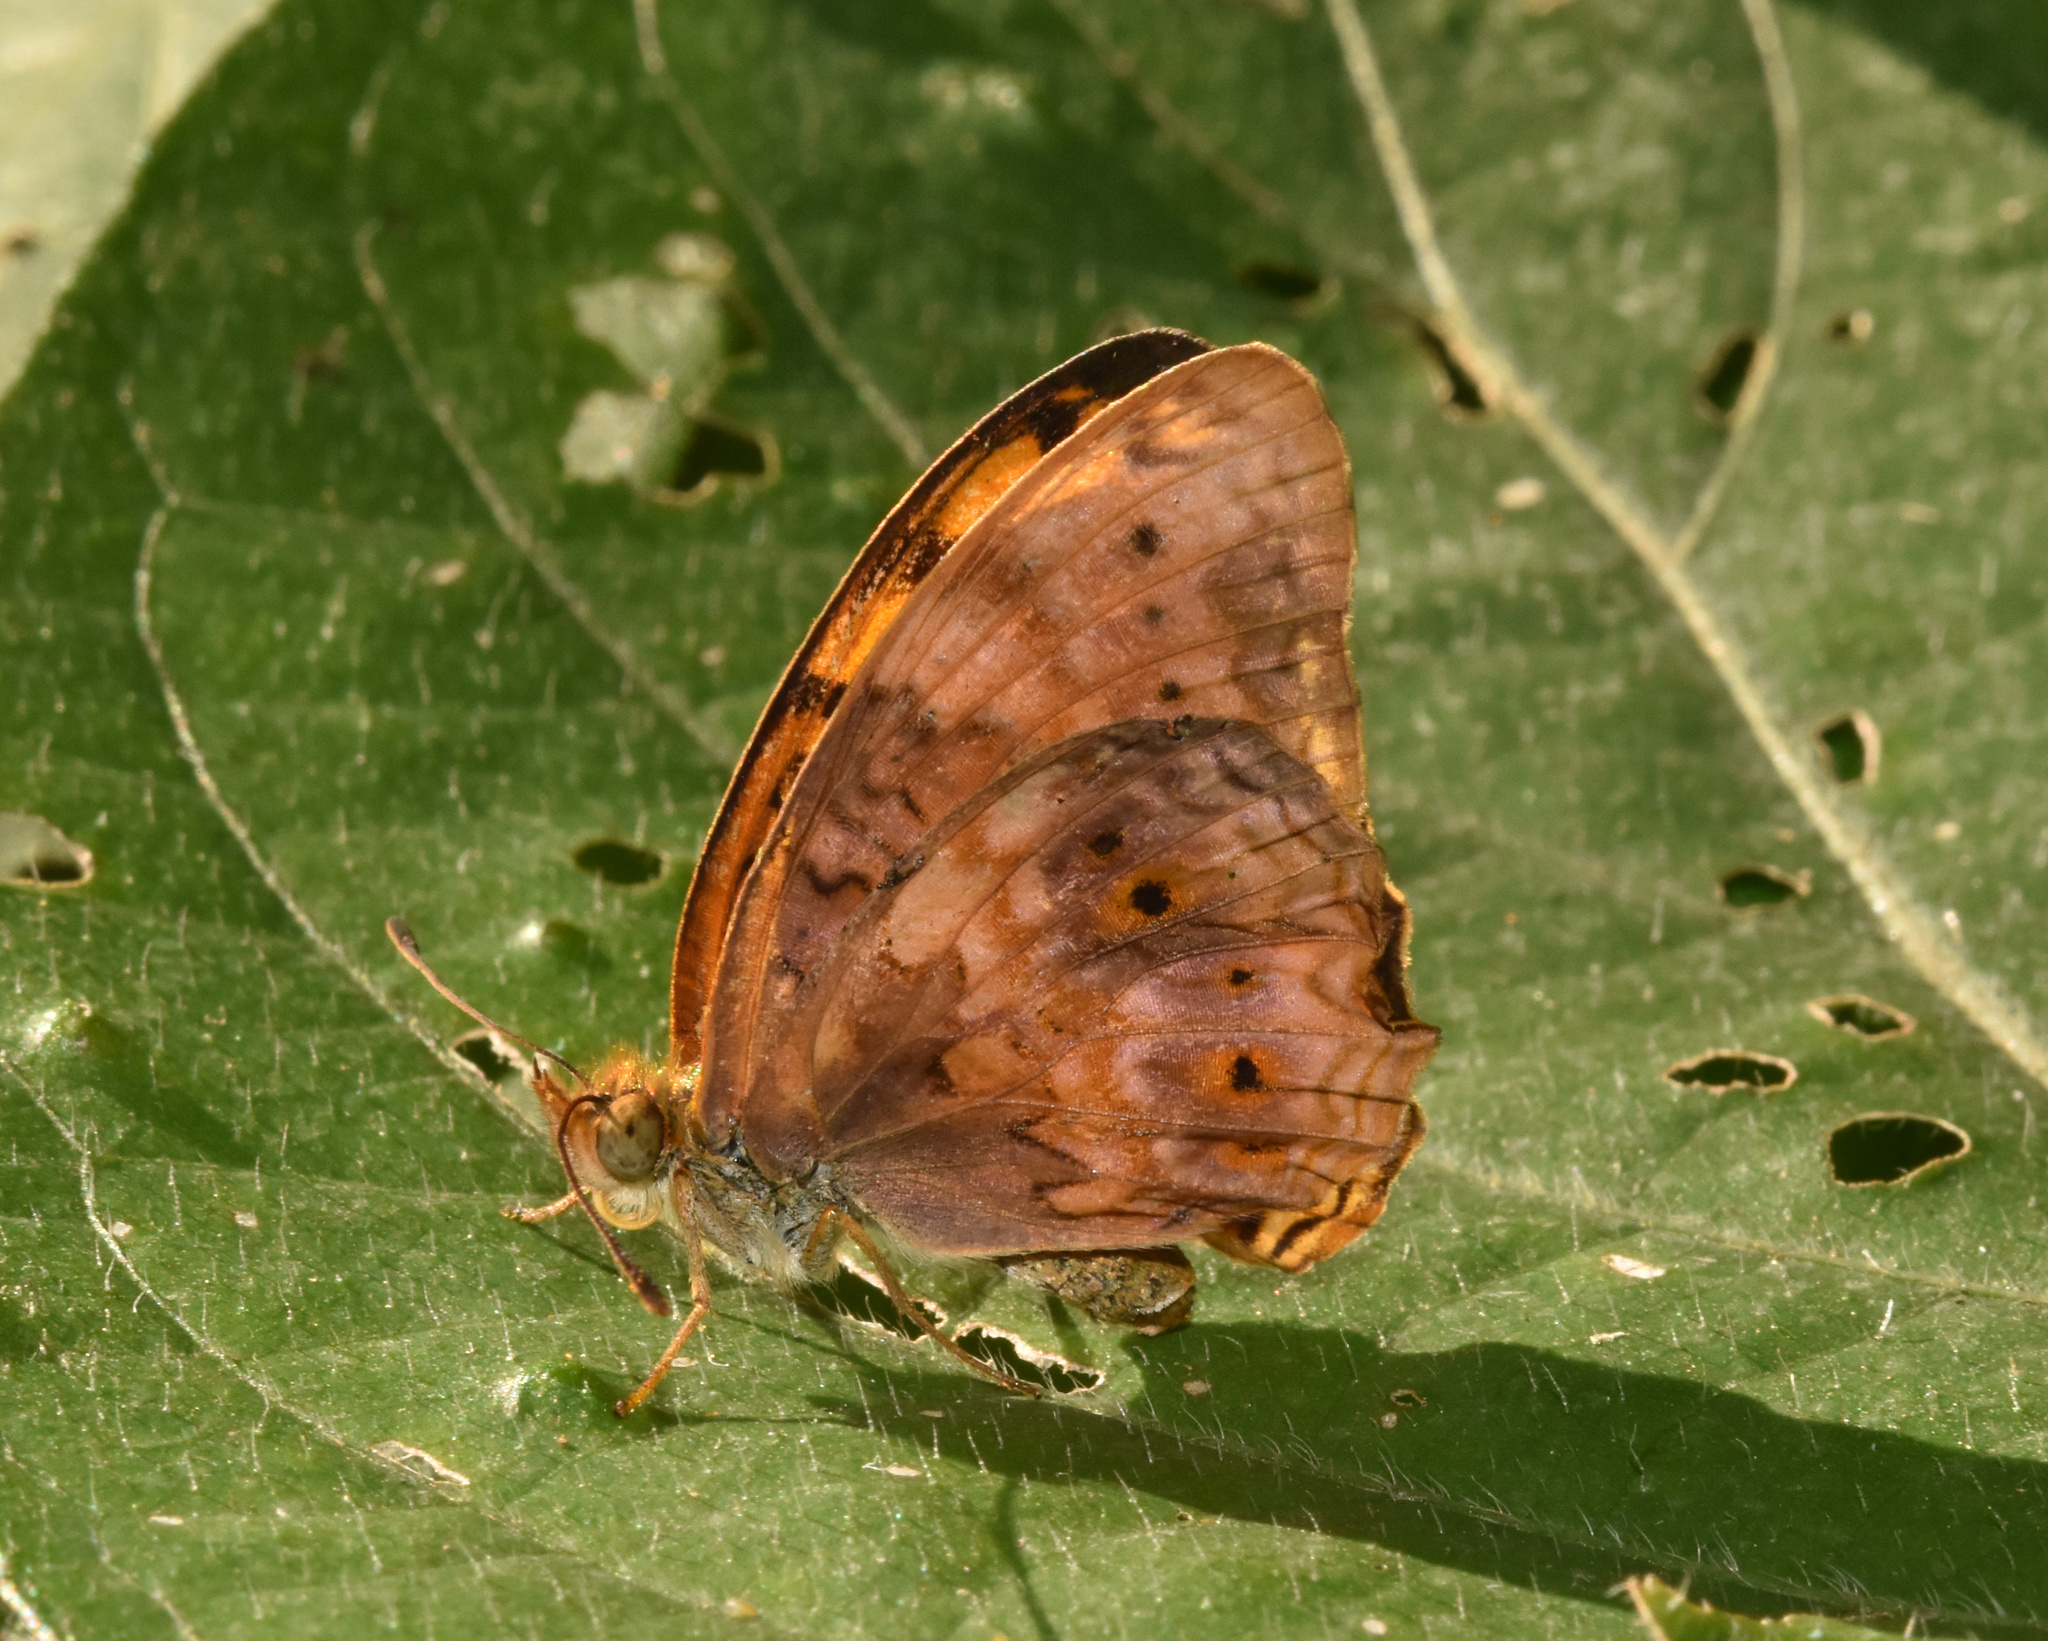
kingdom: Animalia
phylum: Arthropoda
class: Insecta
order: Lepidoptera
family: Nymphalidae
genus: Phalanta
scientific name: Phalanta columbina
